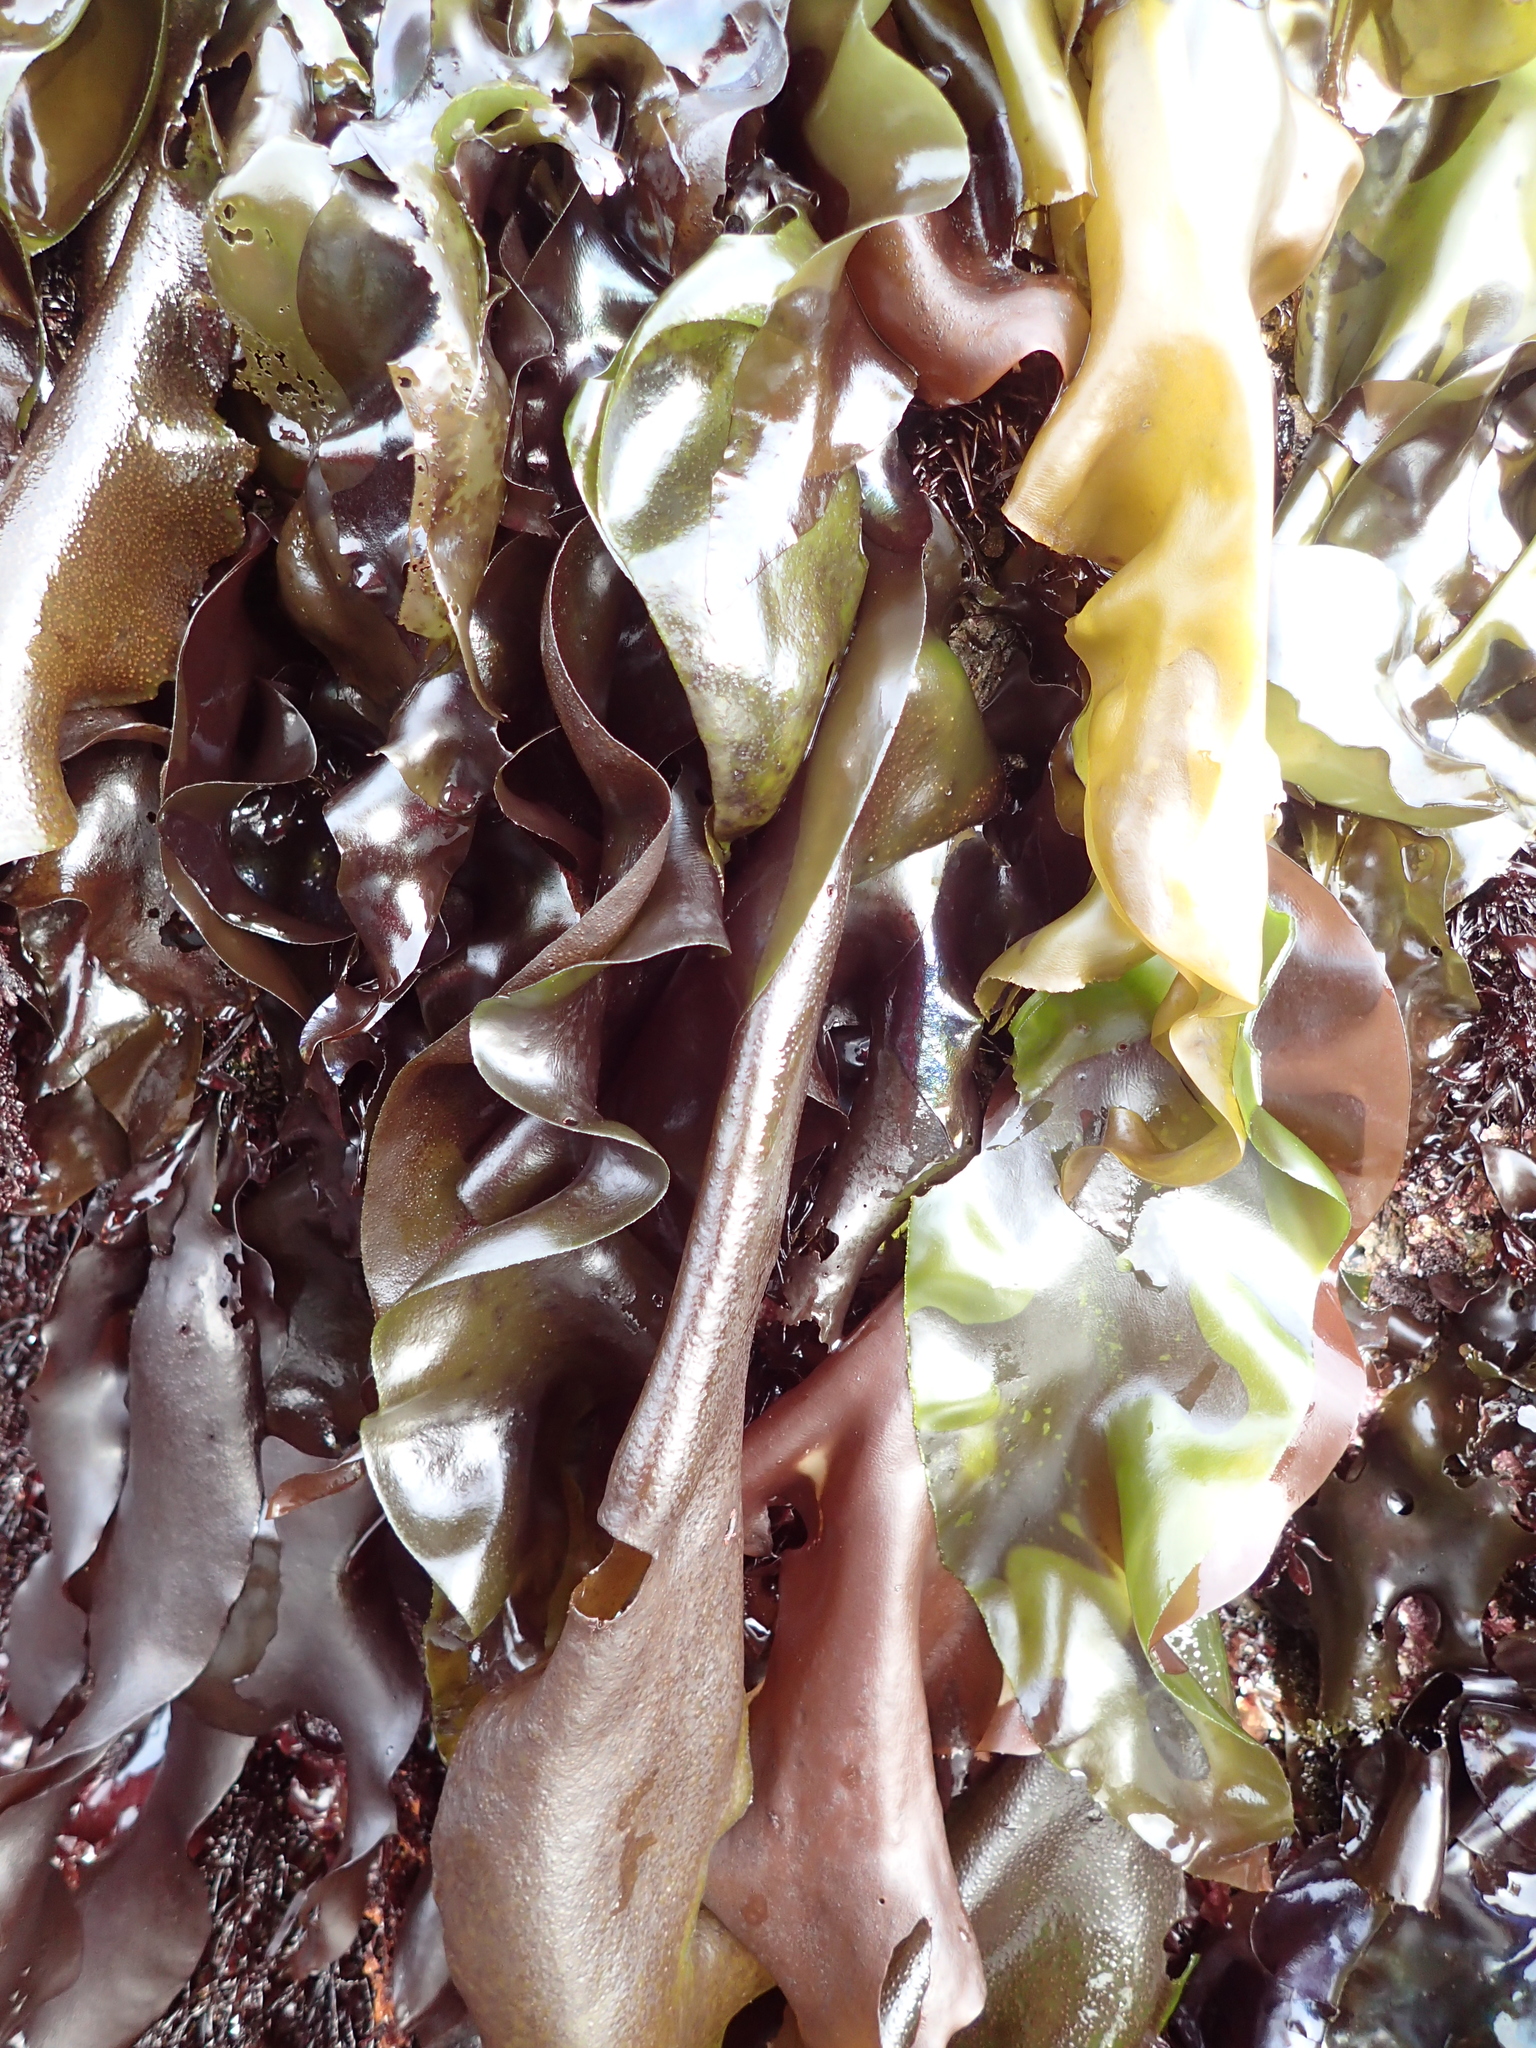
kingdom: Plantae
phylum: Rhodophyta
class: Florideophyceae
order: Gigartinales
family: Gigartinaceae
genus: Mazzaella
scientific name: Mazzaella flaccida
